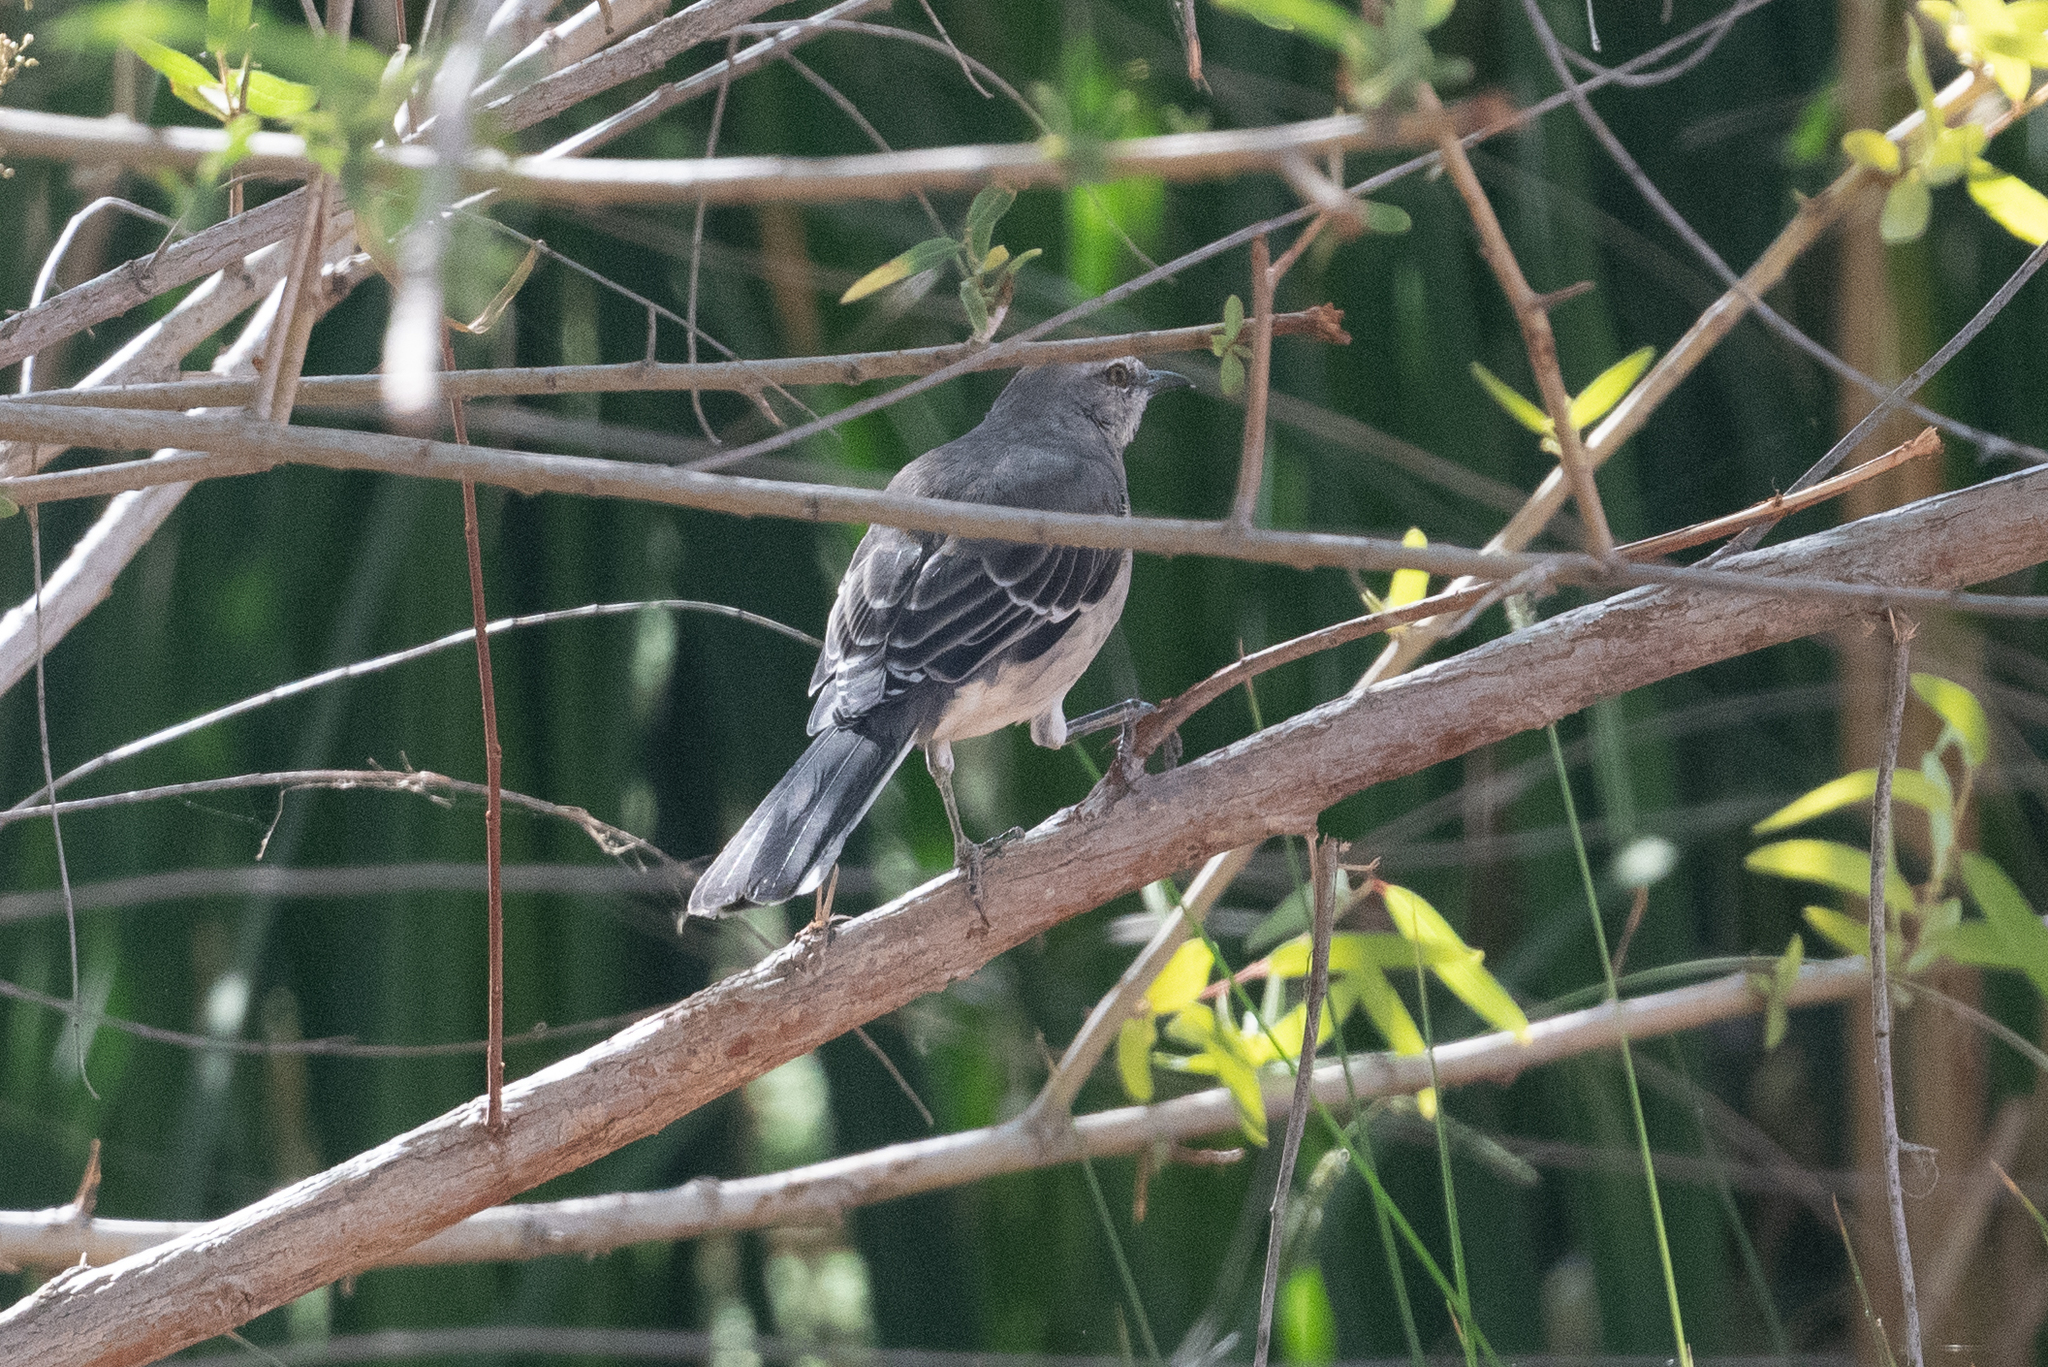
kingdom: Animalia
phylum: Chordata
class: Aves
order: Passeriformes
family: Mimidae
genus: Mimus
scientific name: Mimus polyglottos
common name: Northern mockingbird
